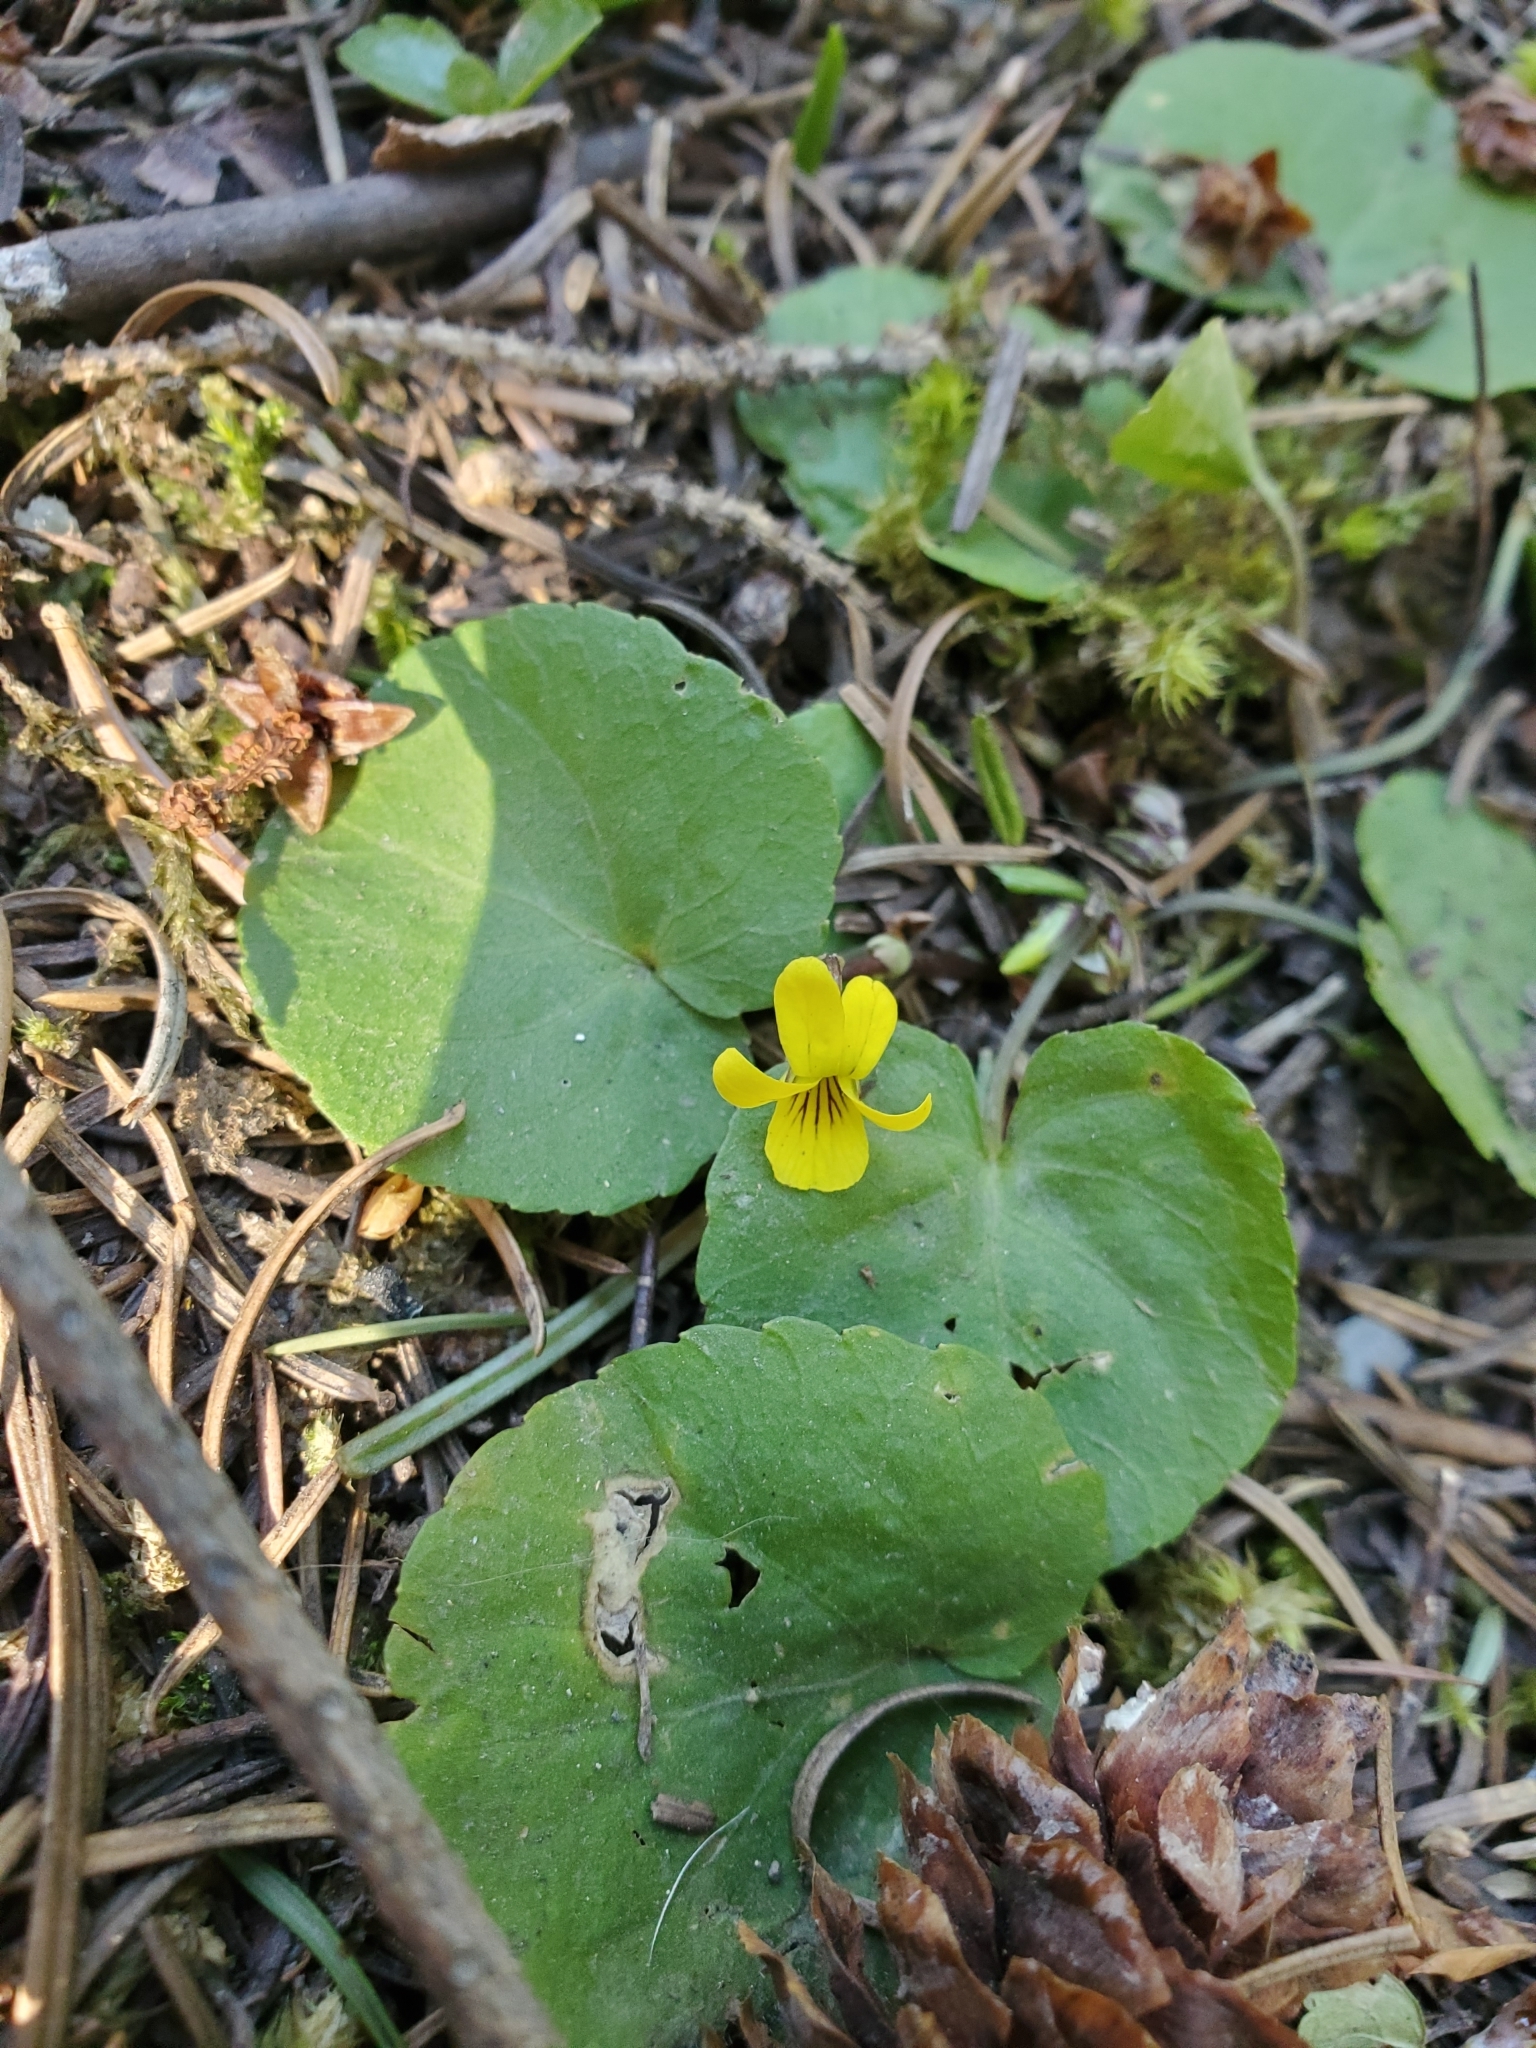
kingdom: Plantae
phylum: Tracheophyta
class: Magnoliopsida
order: Malpighiales
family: Violaceae
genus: Viola
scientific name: Viola orbiculata
